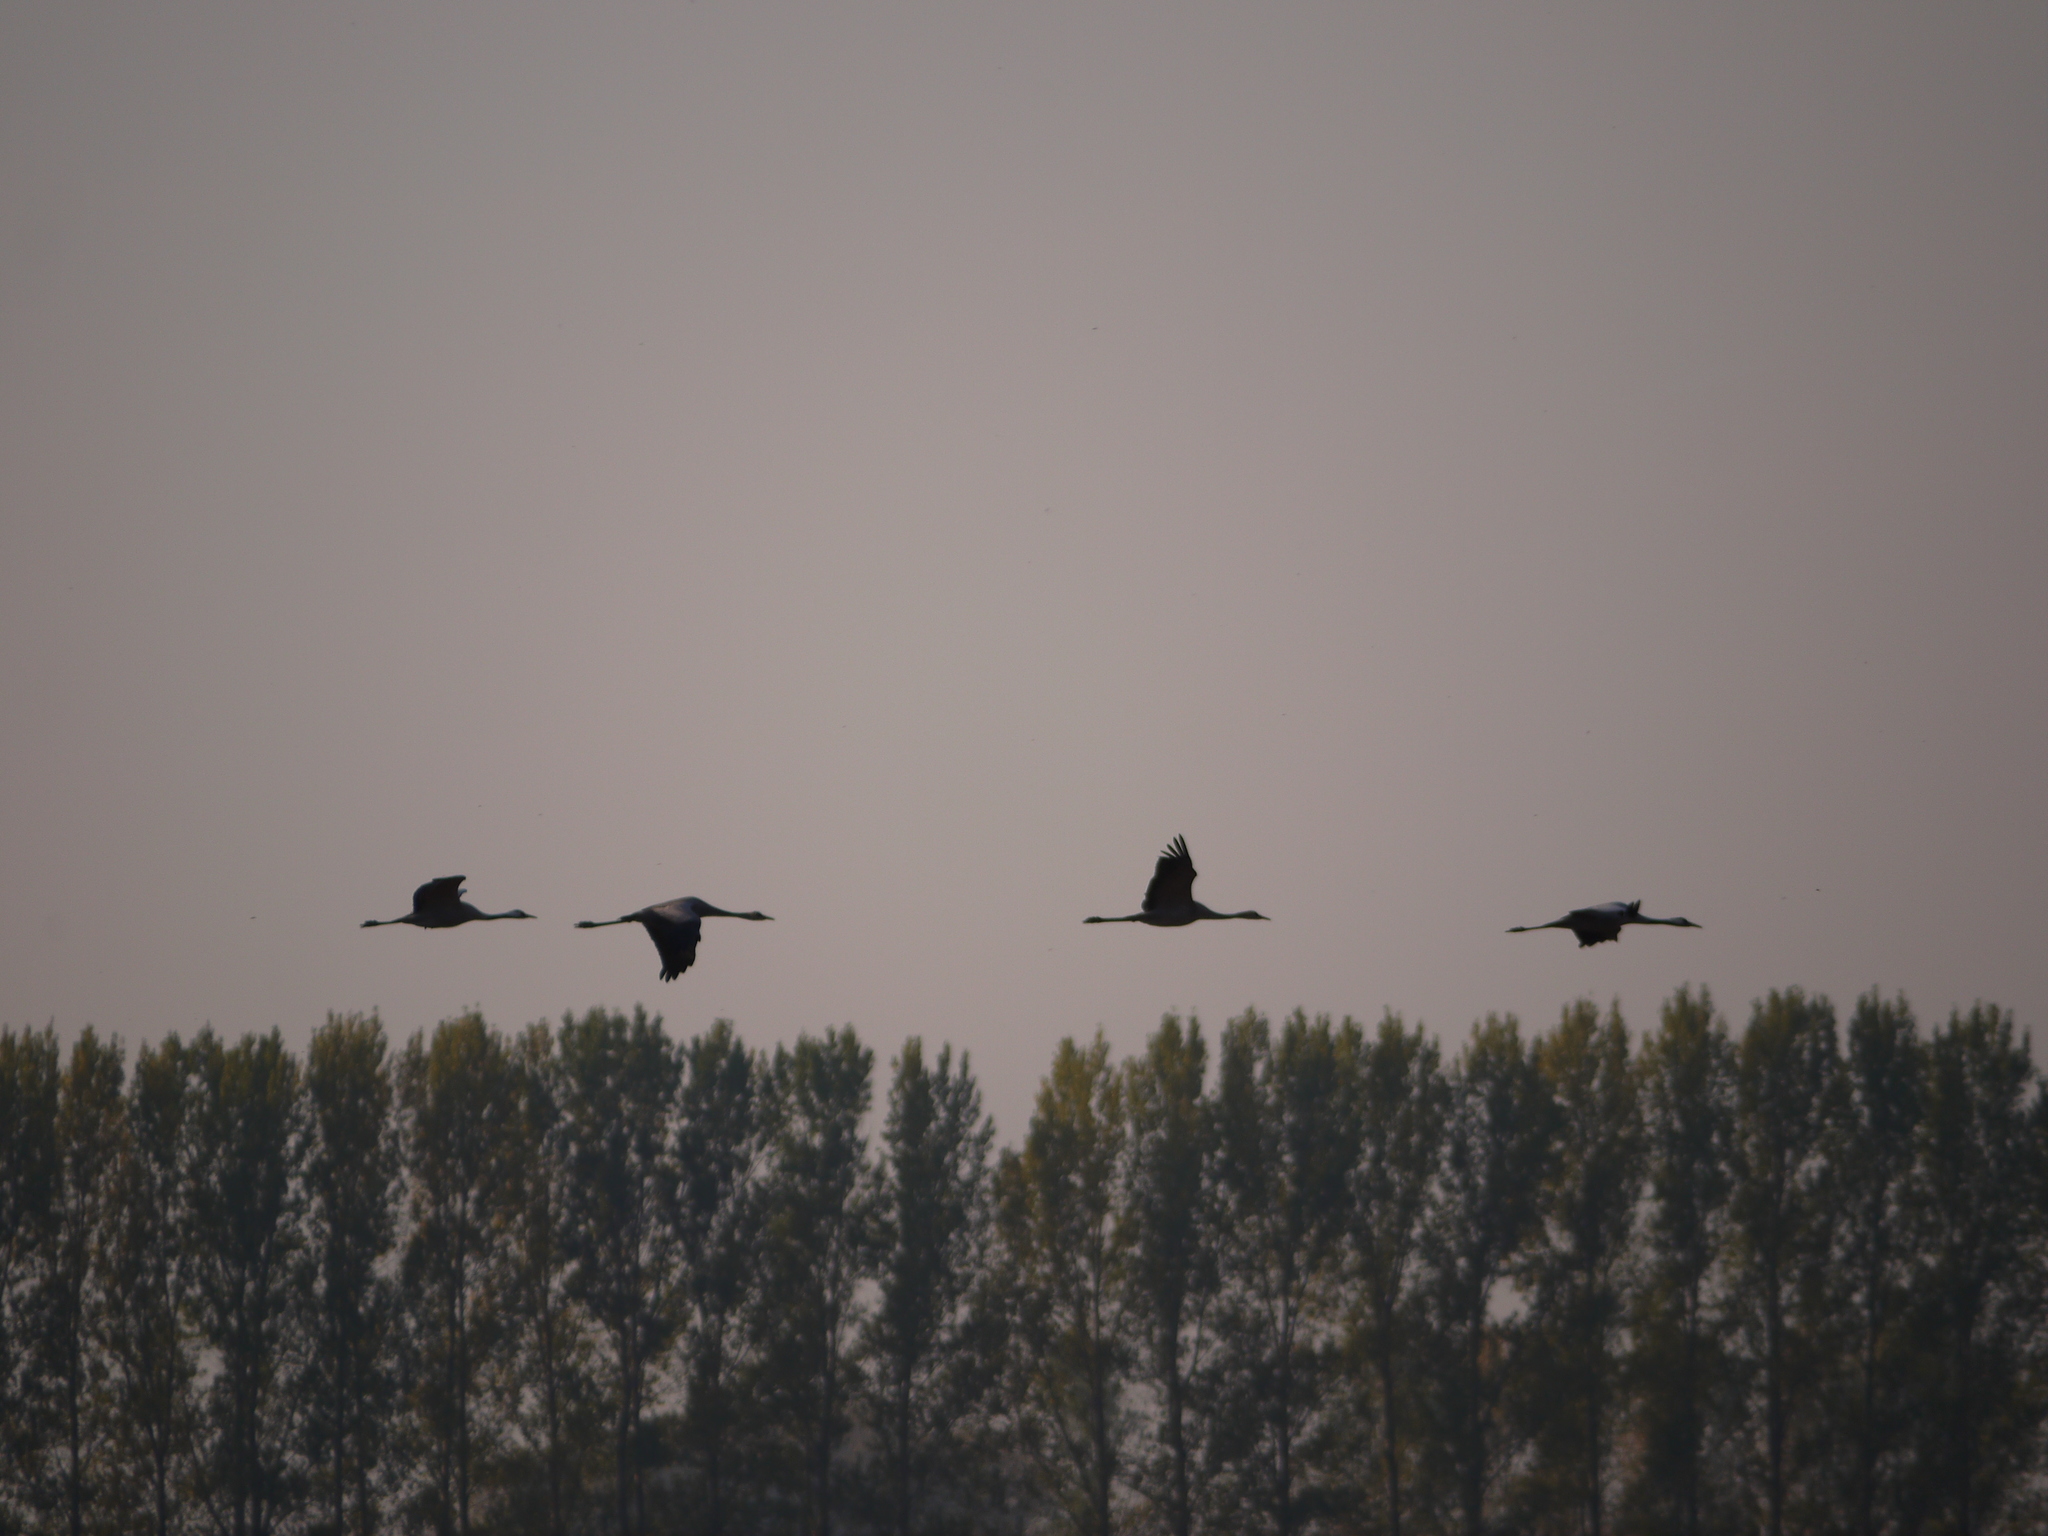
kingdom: Animalia
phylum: Chordata
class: Aves
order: Gruiformes
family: Gruidae
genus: Grus
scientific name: Grus grus
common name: Common crane
